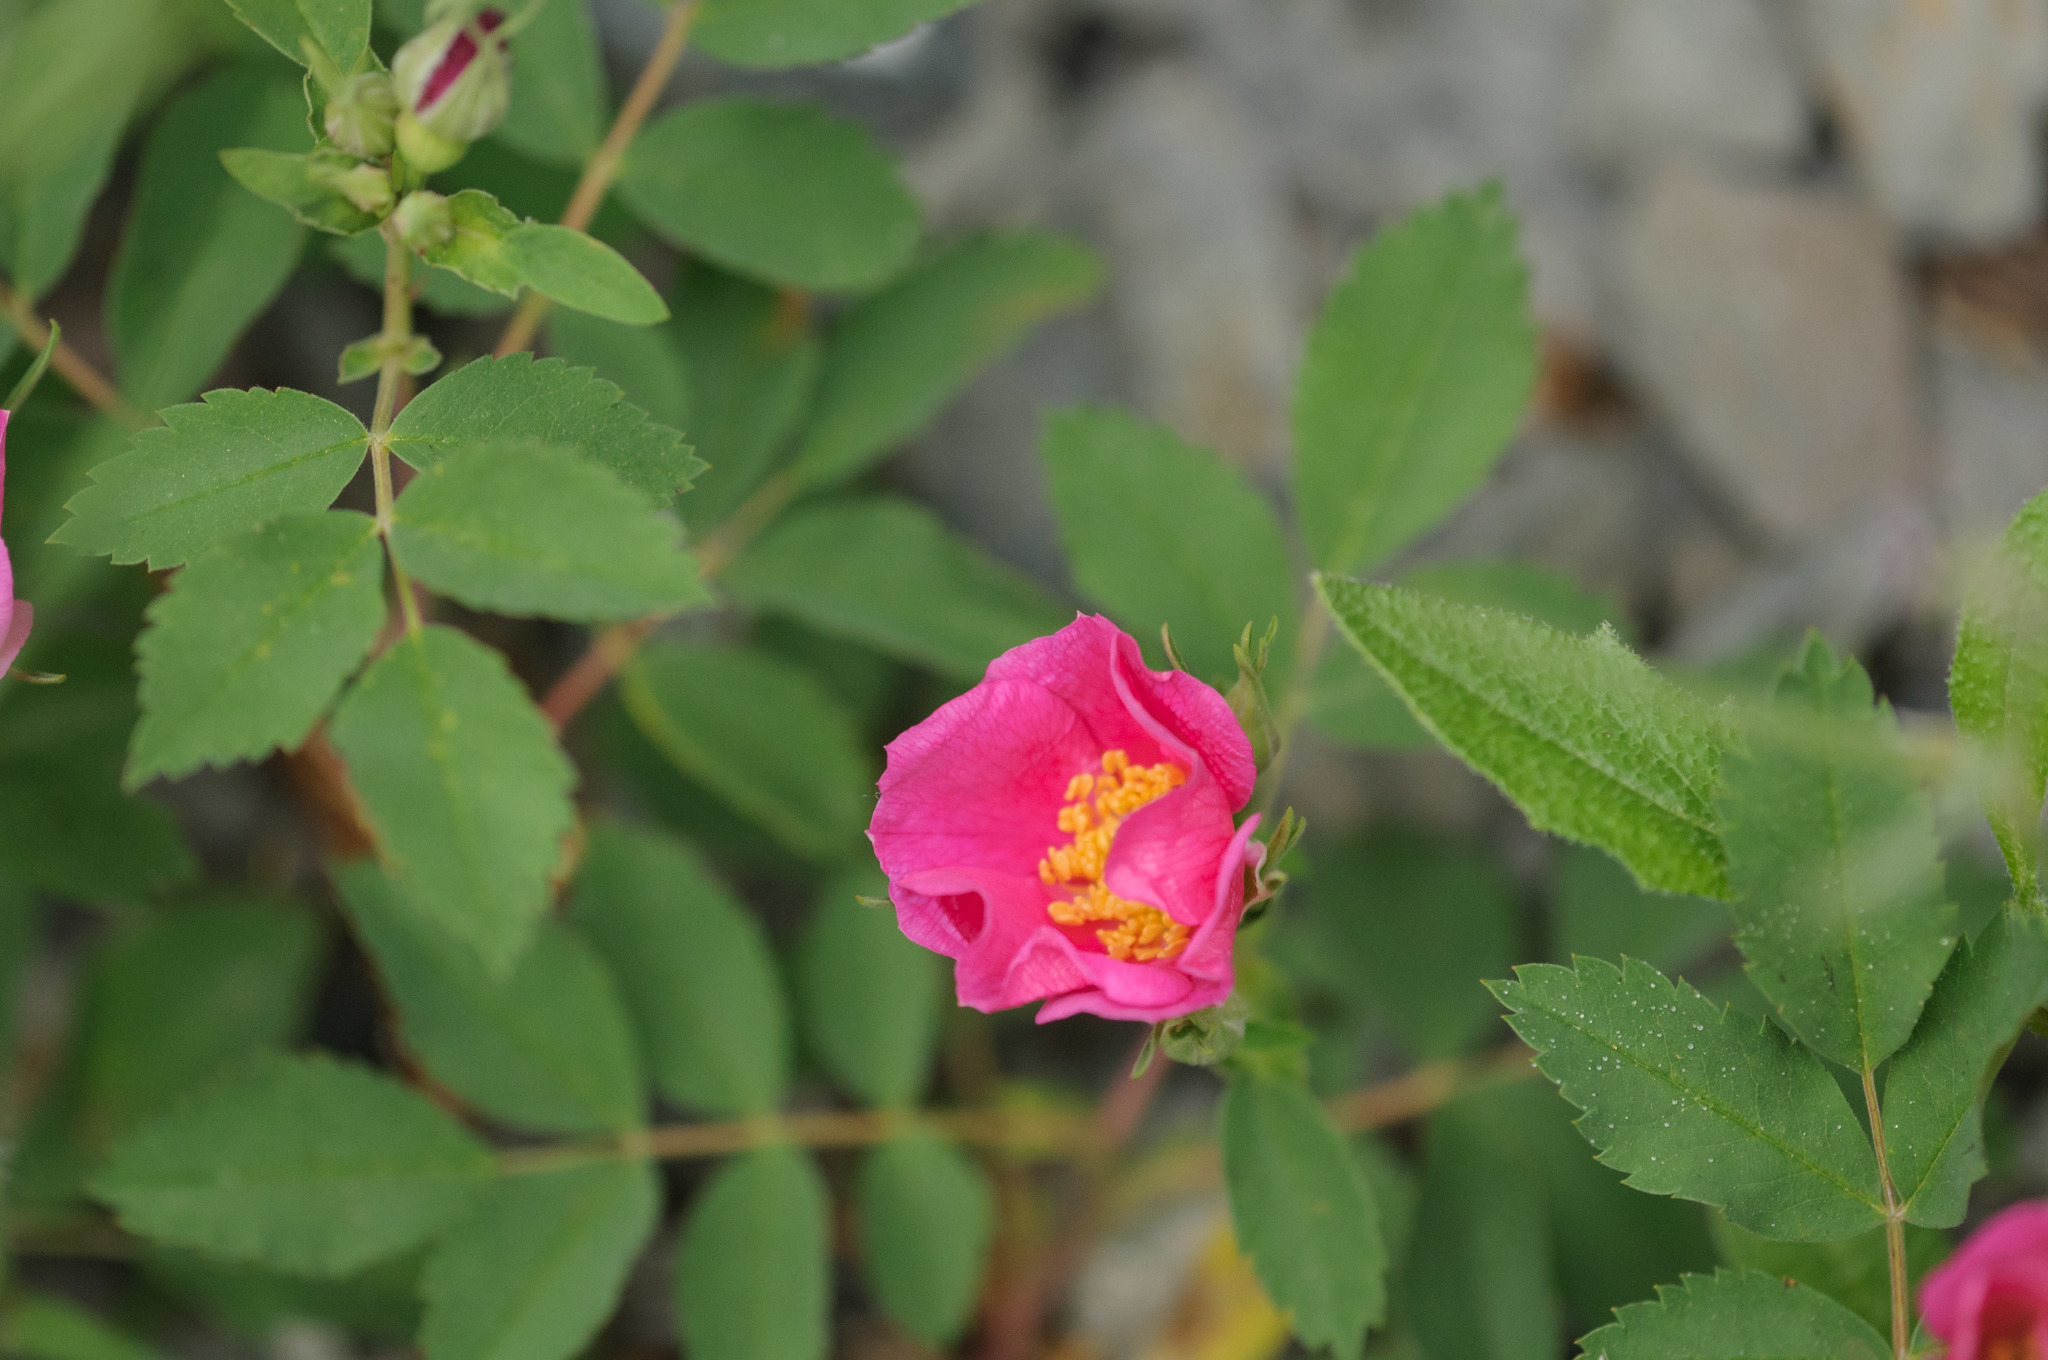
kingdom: Plantae
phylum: Tracheophyta
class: Magnoliopsida
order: Rosales
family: Rosaceae
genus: Rosa
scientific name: Rosa woodsii
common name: Woods's rose
